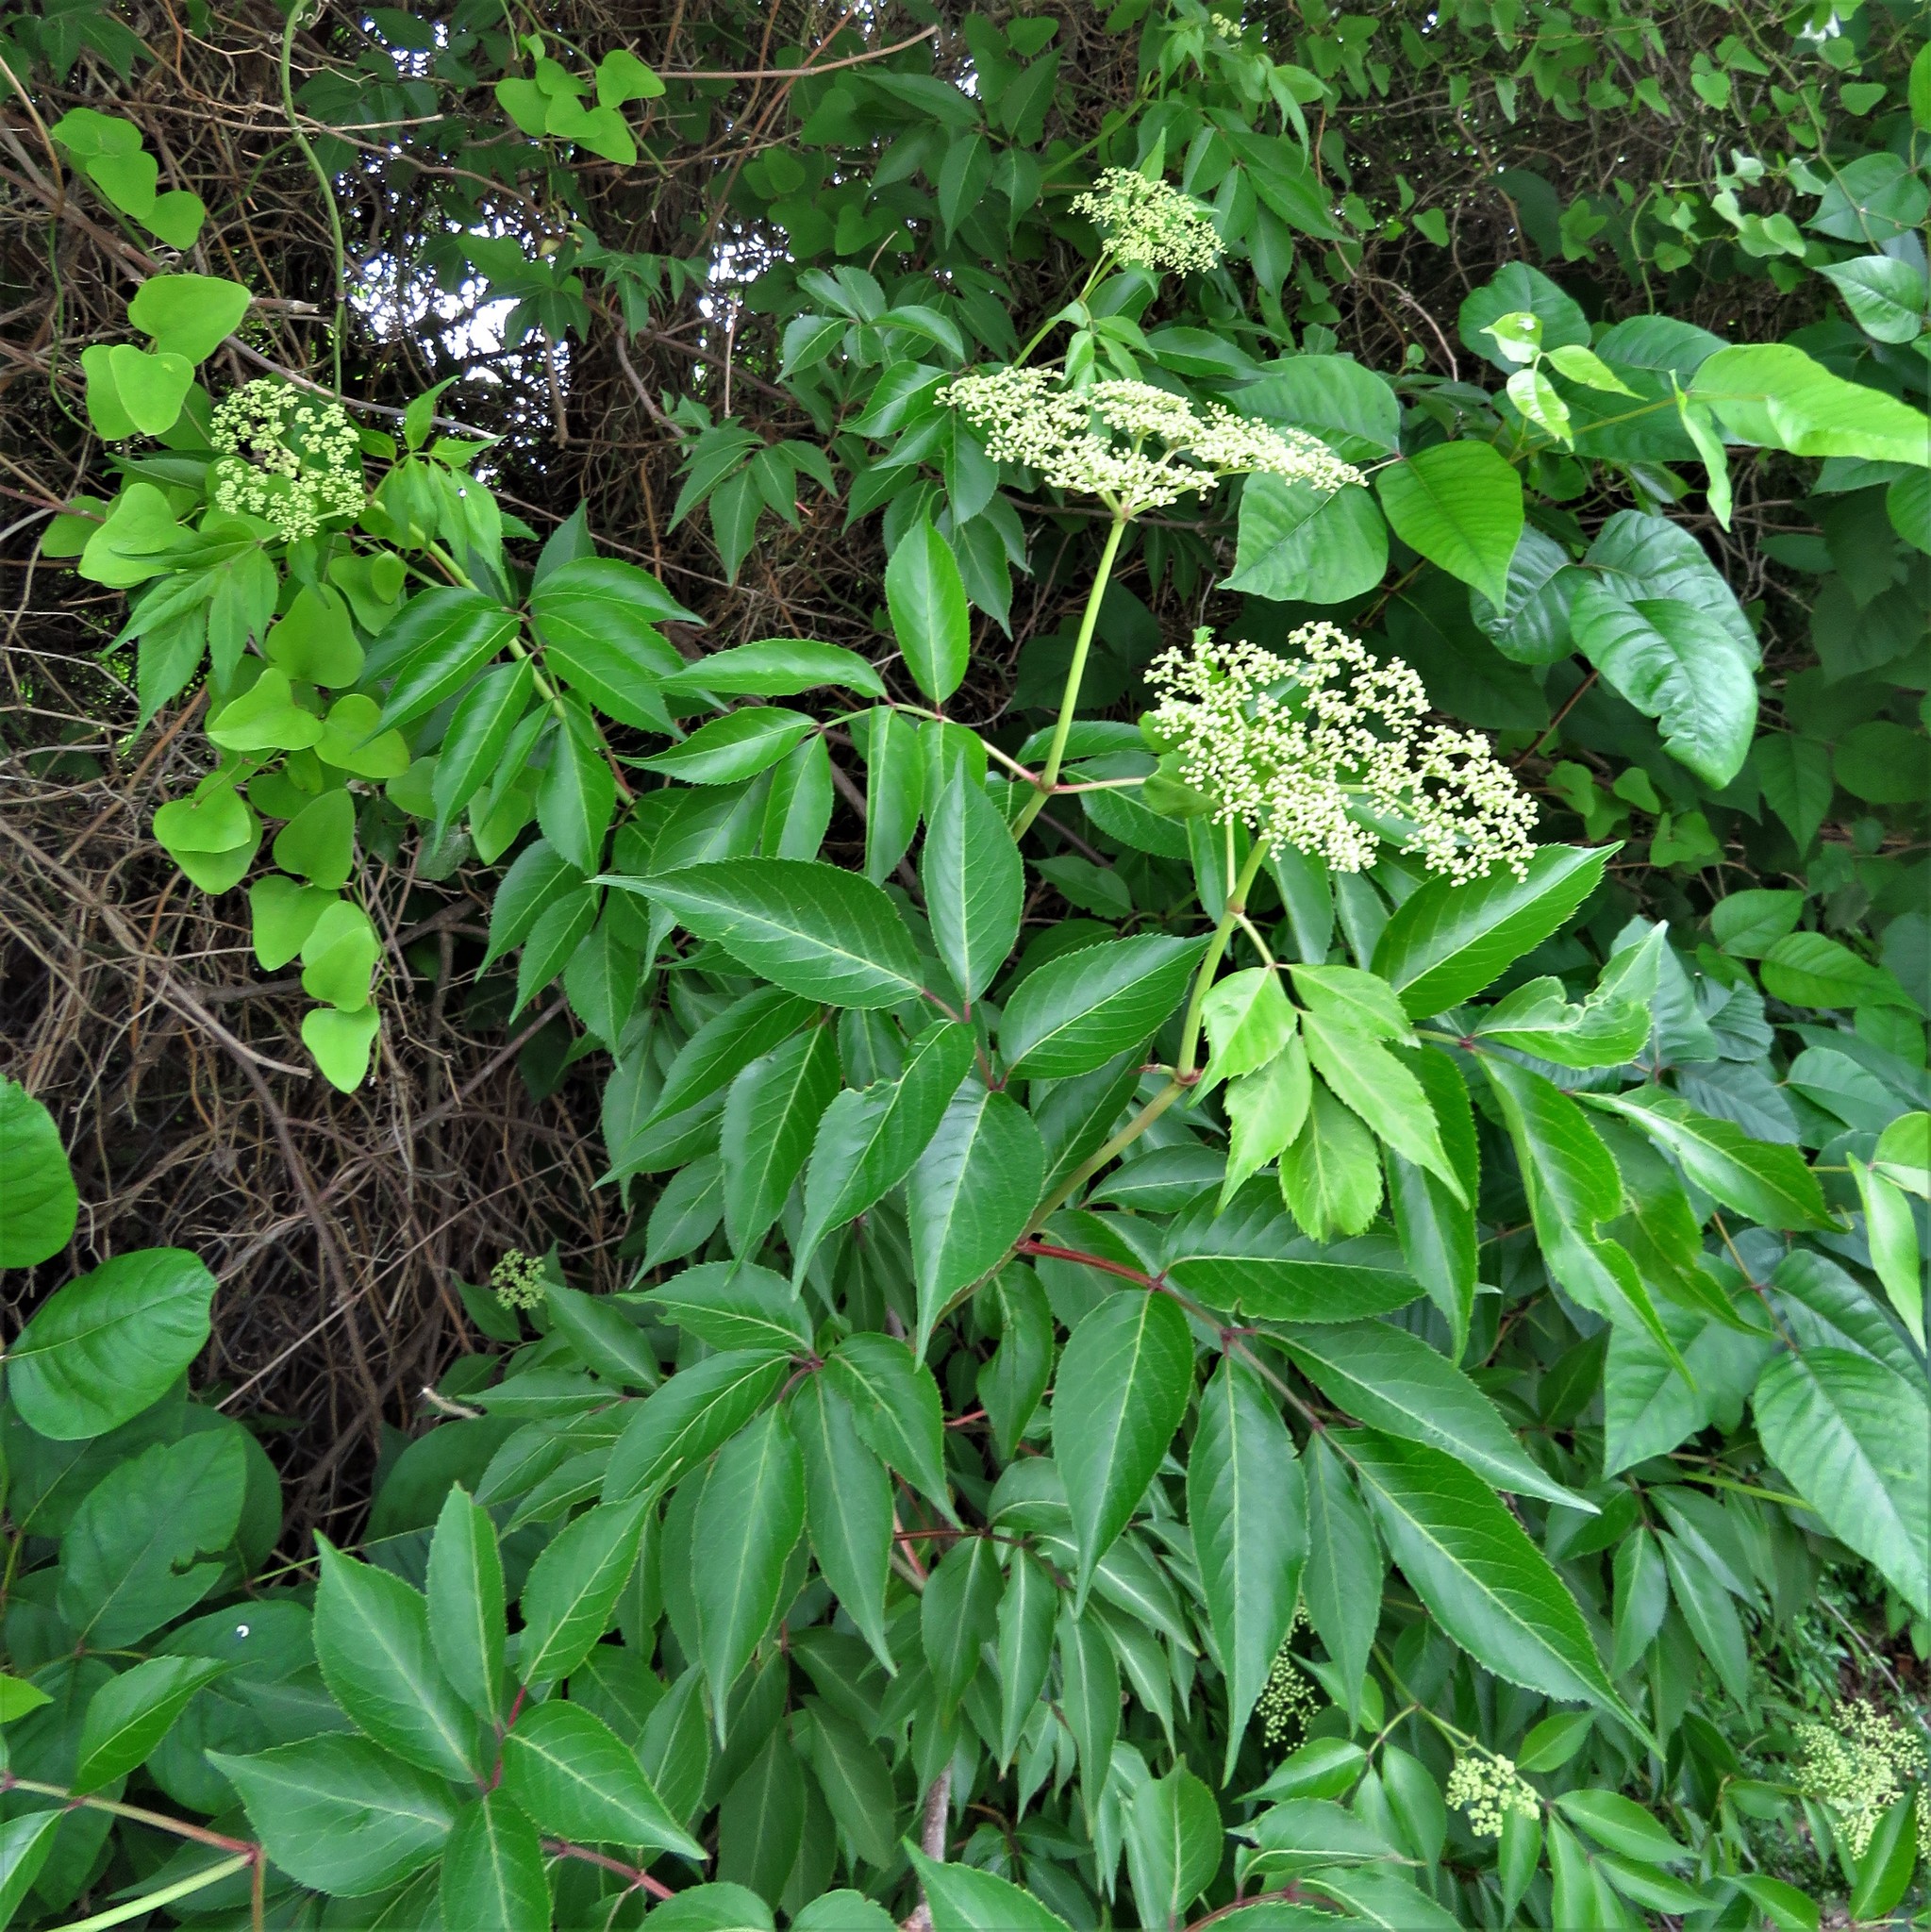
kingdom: Plantae
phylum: Tracheophyta
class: Magnoliopsida
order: Dipsacales
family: Viburnaceae
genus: Sambucus
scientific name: Sambucus canadensis
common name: American elder
